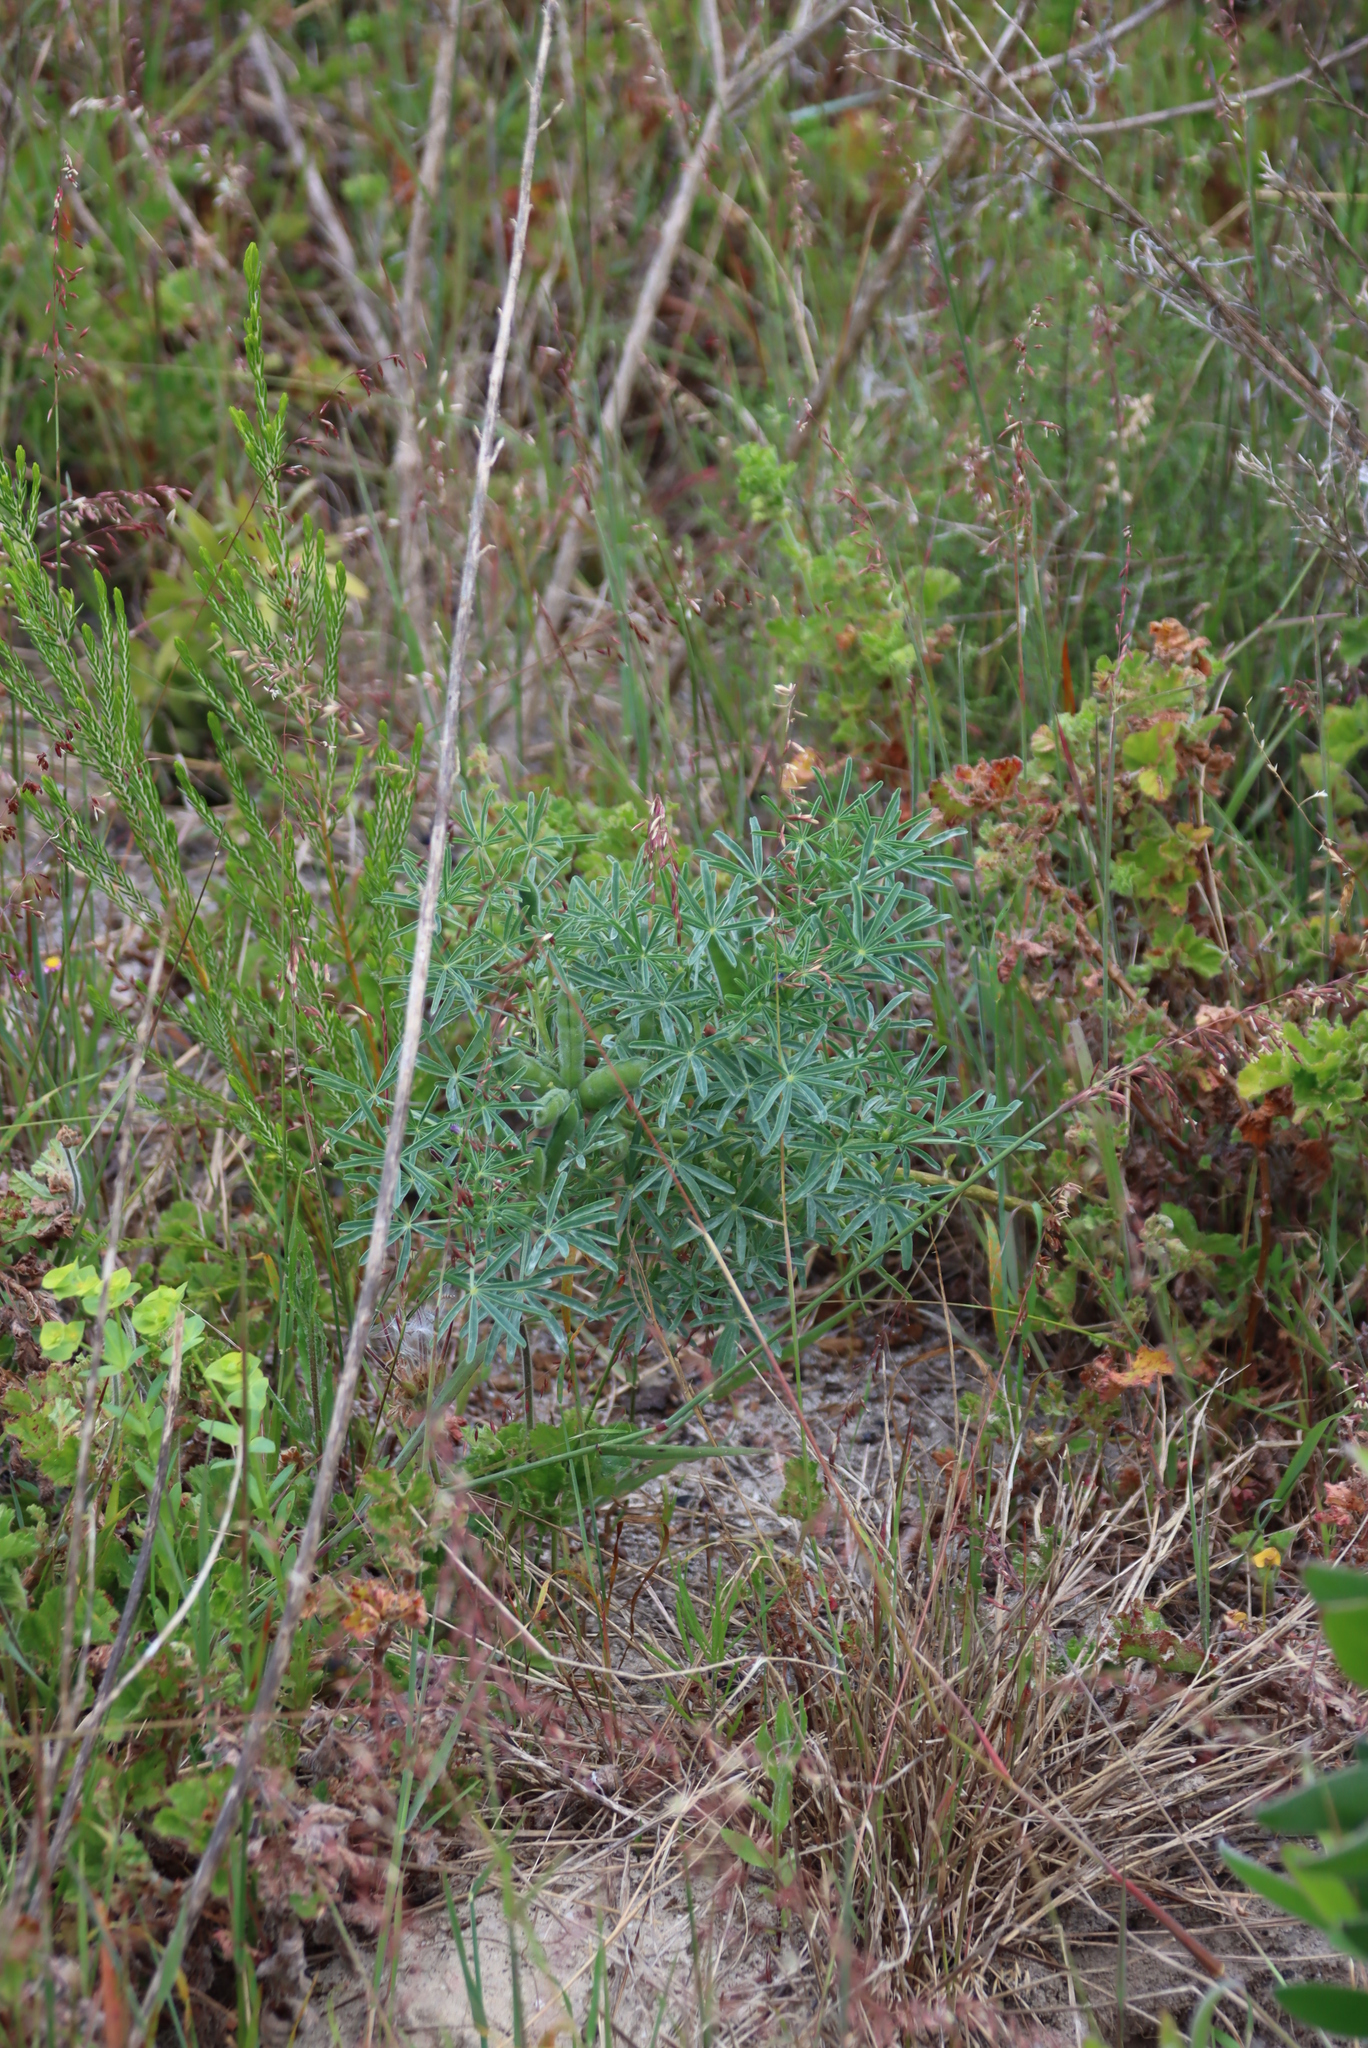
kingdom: Plantae
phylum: Tracheophyta
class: Magnoliopsida
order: Fabales
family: Fabaceae
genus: Lupinus
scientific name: Lupinus angustifolius
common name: Narrow-leaved lupin
